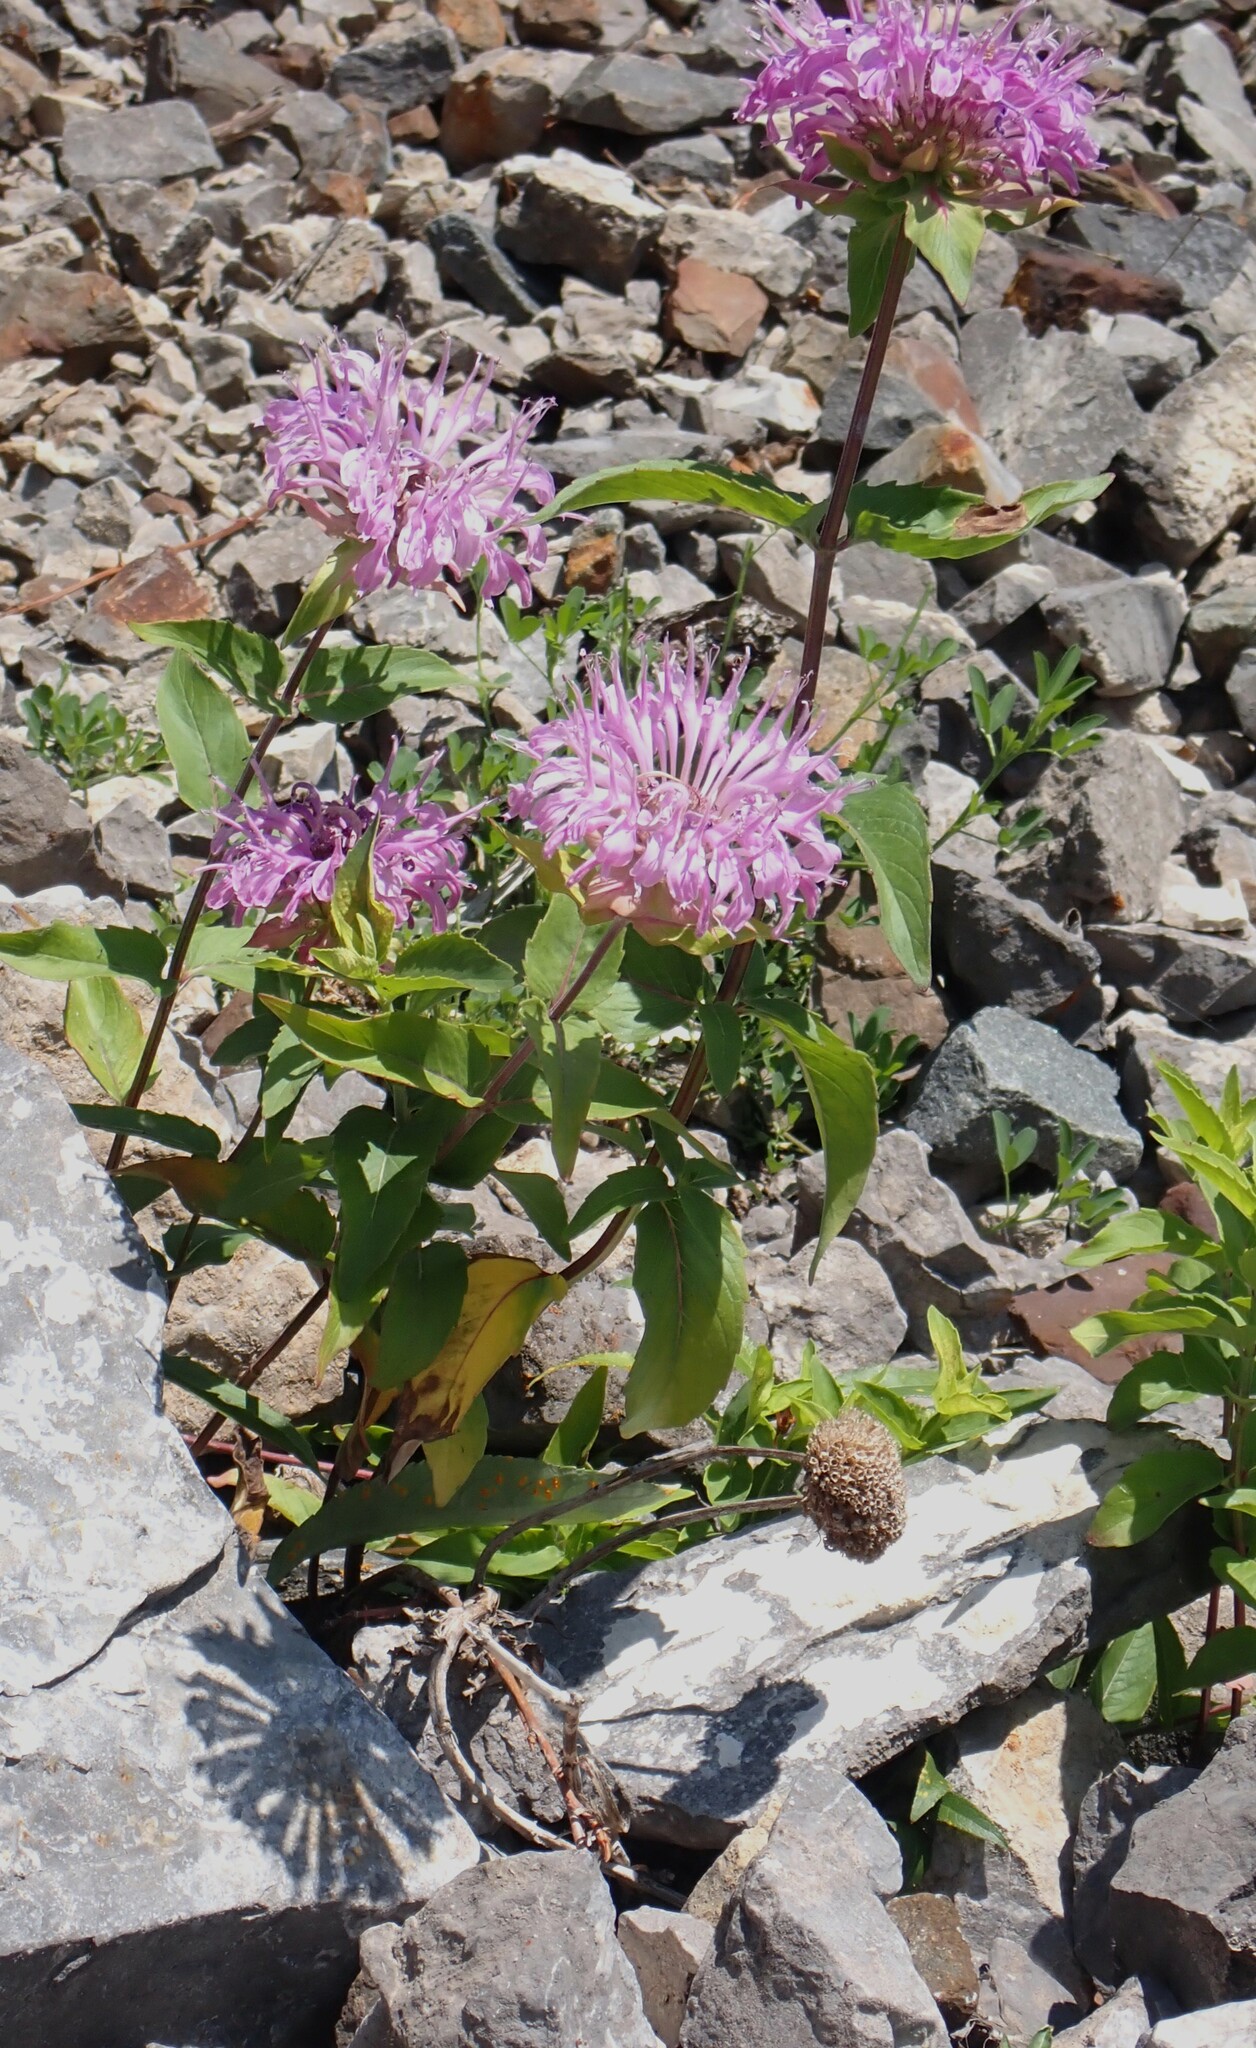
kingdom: Plantae
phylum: Tracheophyta
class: Magnoliopsida
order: Lamiales
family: Lamiaceae
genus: Monarda
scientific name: Monarda fistulosa
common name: Purple beebalm
